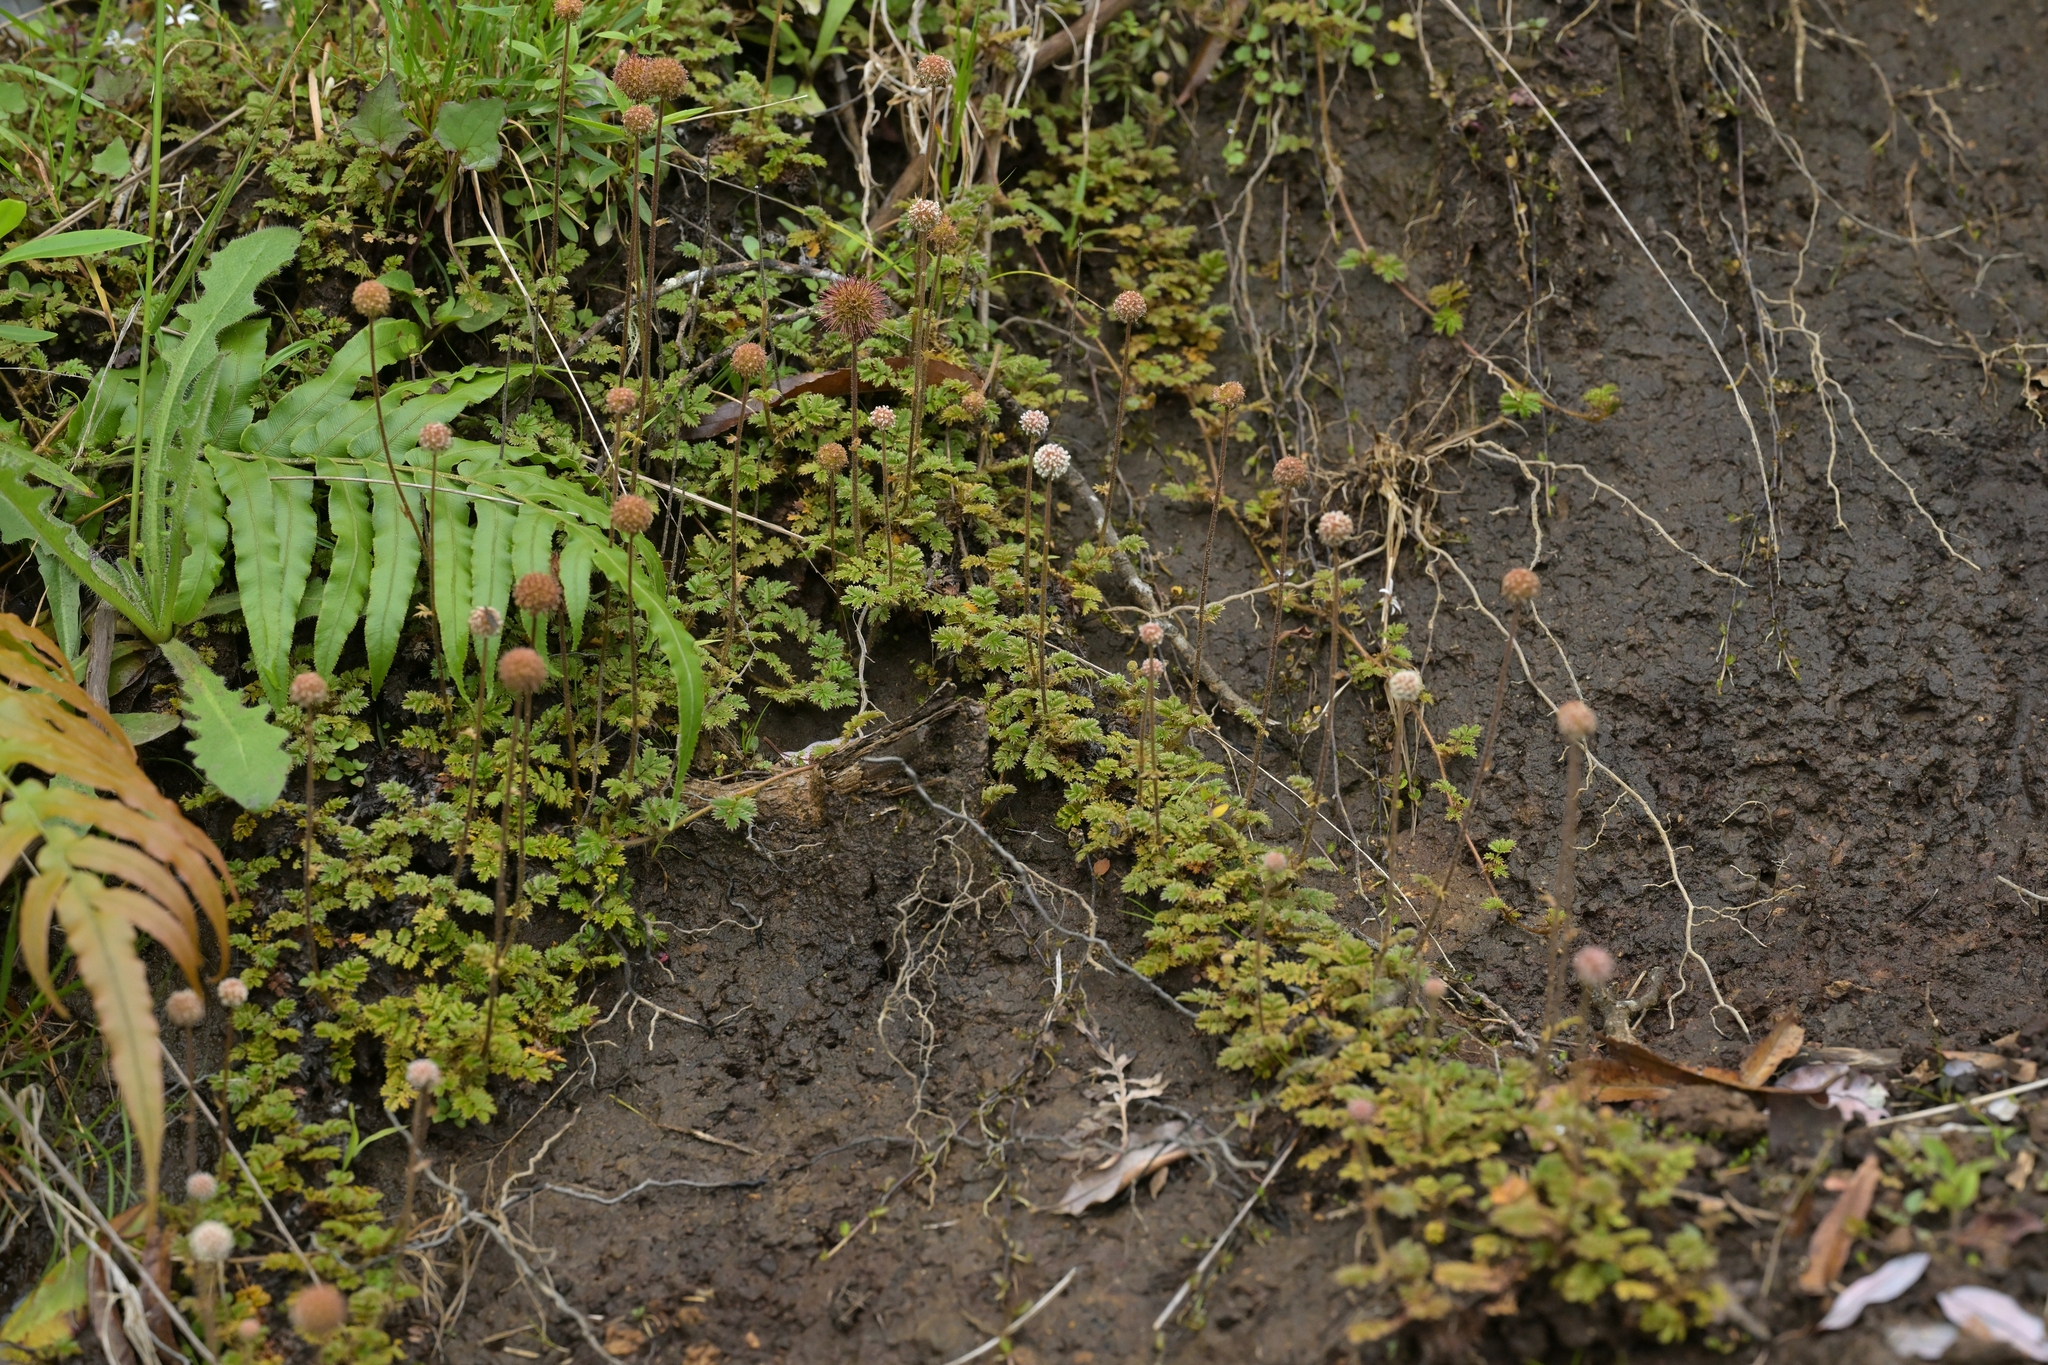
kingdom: Plantae
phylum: Tracheophyta
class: Magnoliopsida
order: Rosales
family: Rosaceae
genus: Acaena
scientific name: Acaena anserinifolia
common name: Bronze pirri-pirri-bur
